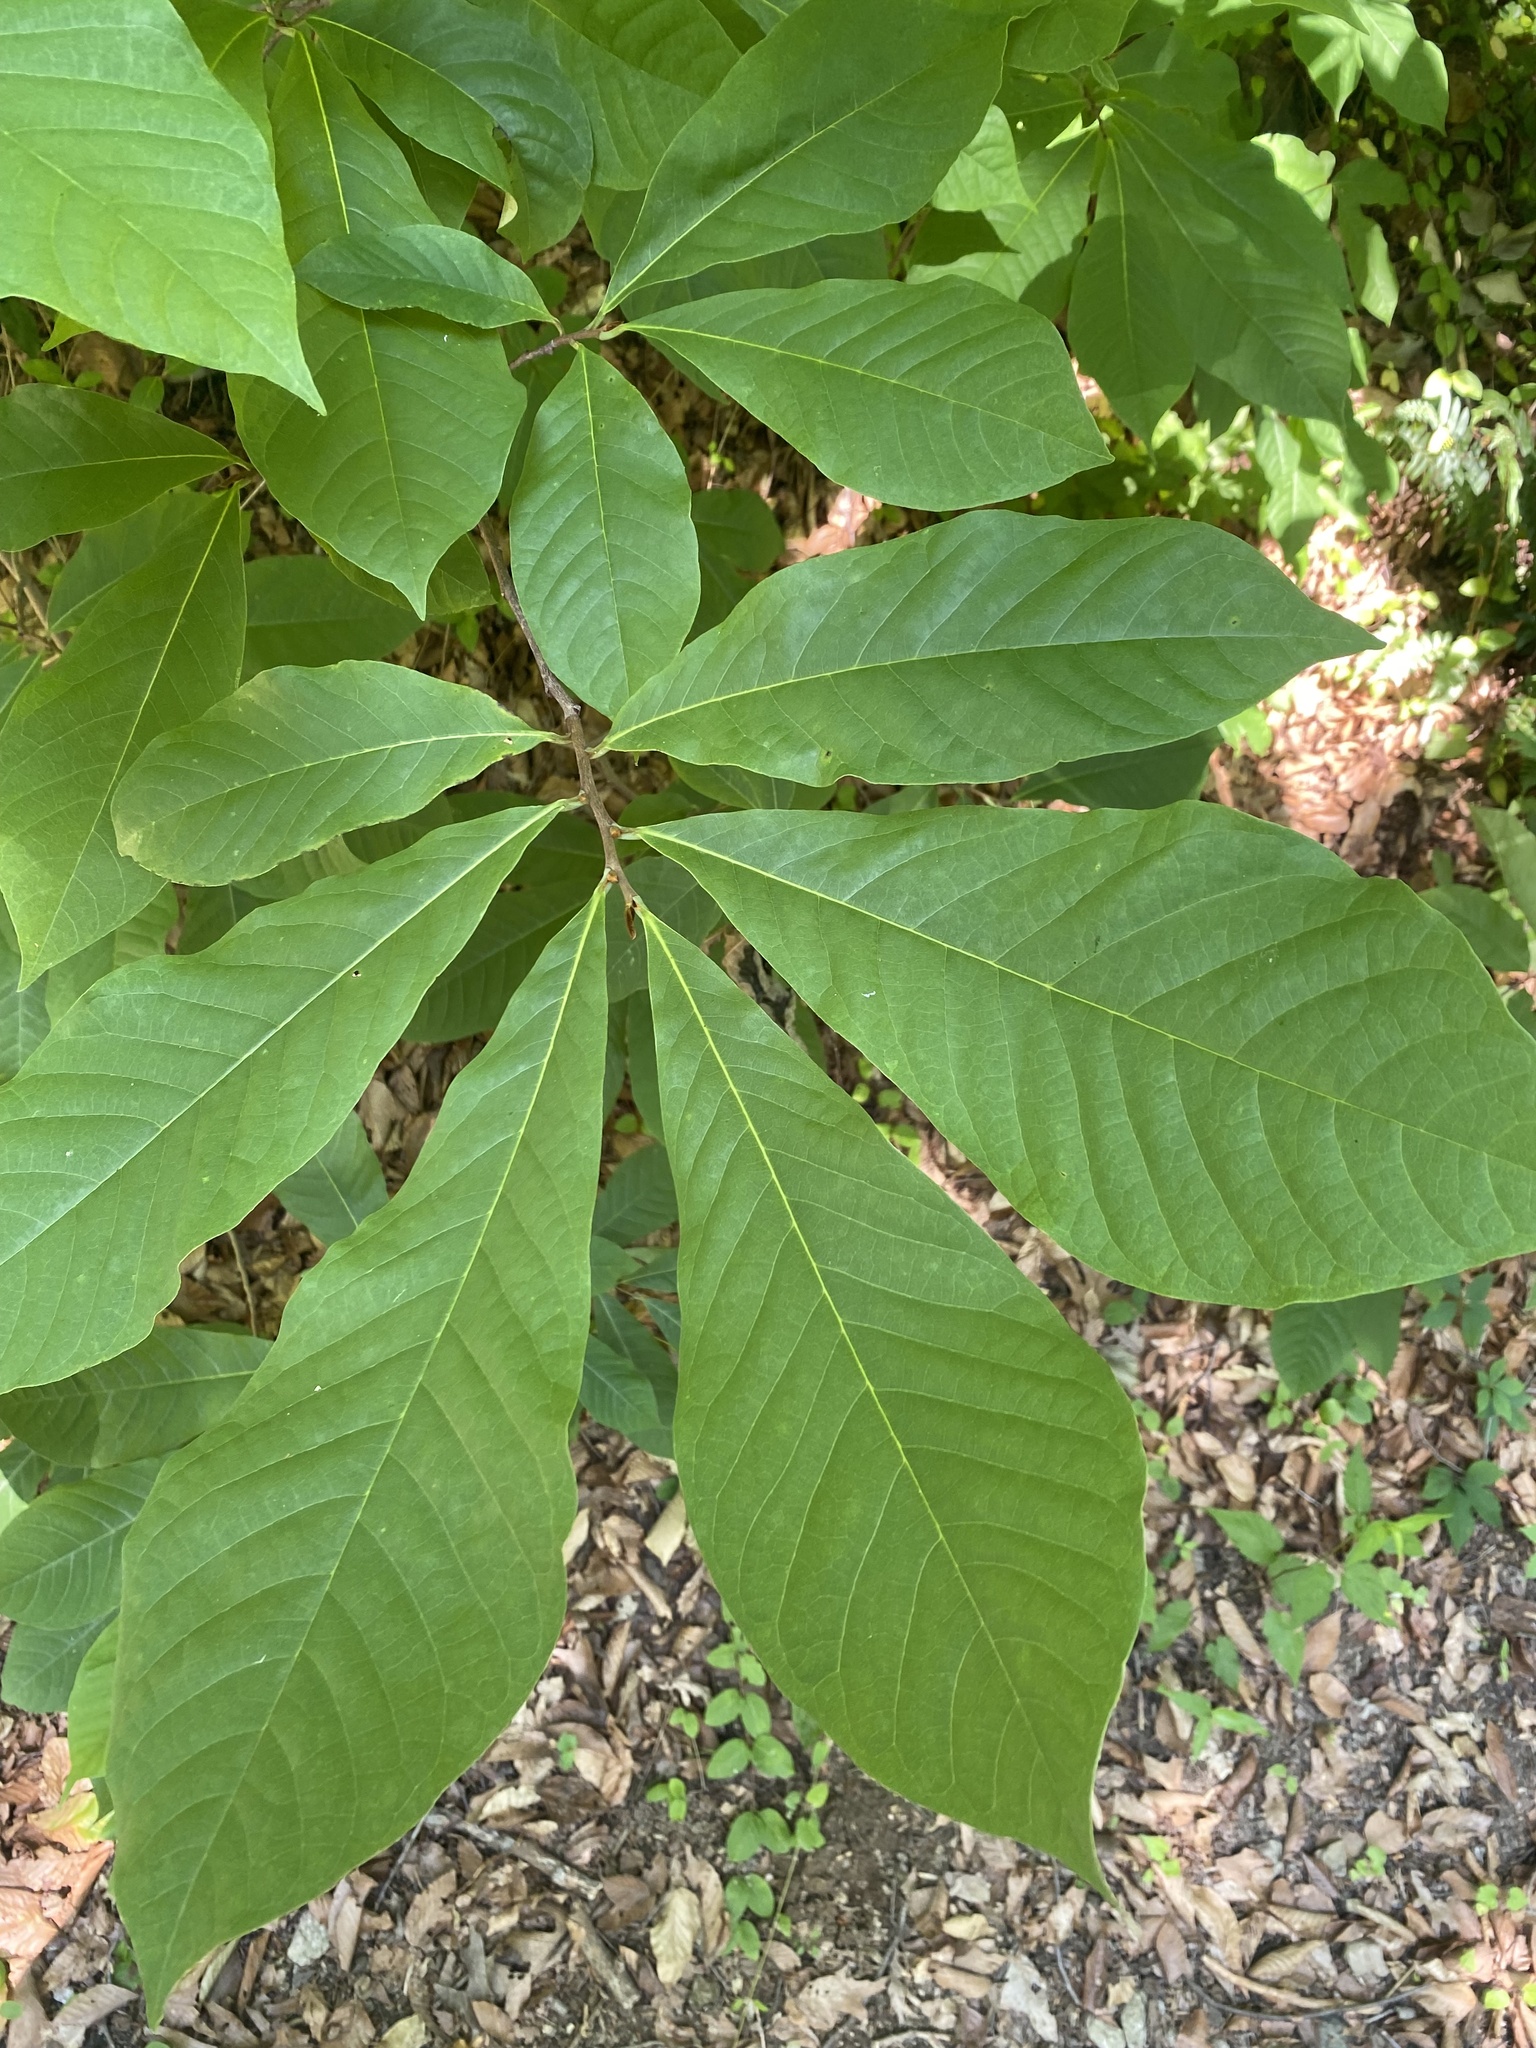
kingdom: Plantae
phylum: Tracheophyta
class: Magnoliopsida
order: Magnoliales
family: Annonaceae
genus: Asimina
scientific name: Asimina triloba
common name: Dog-banana
